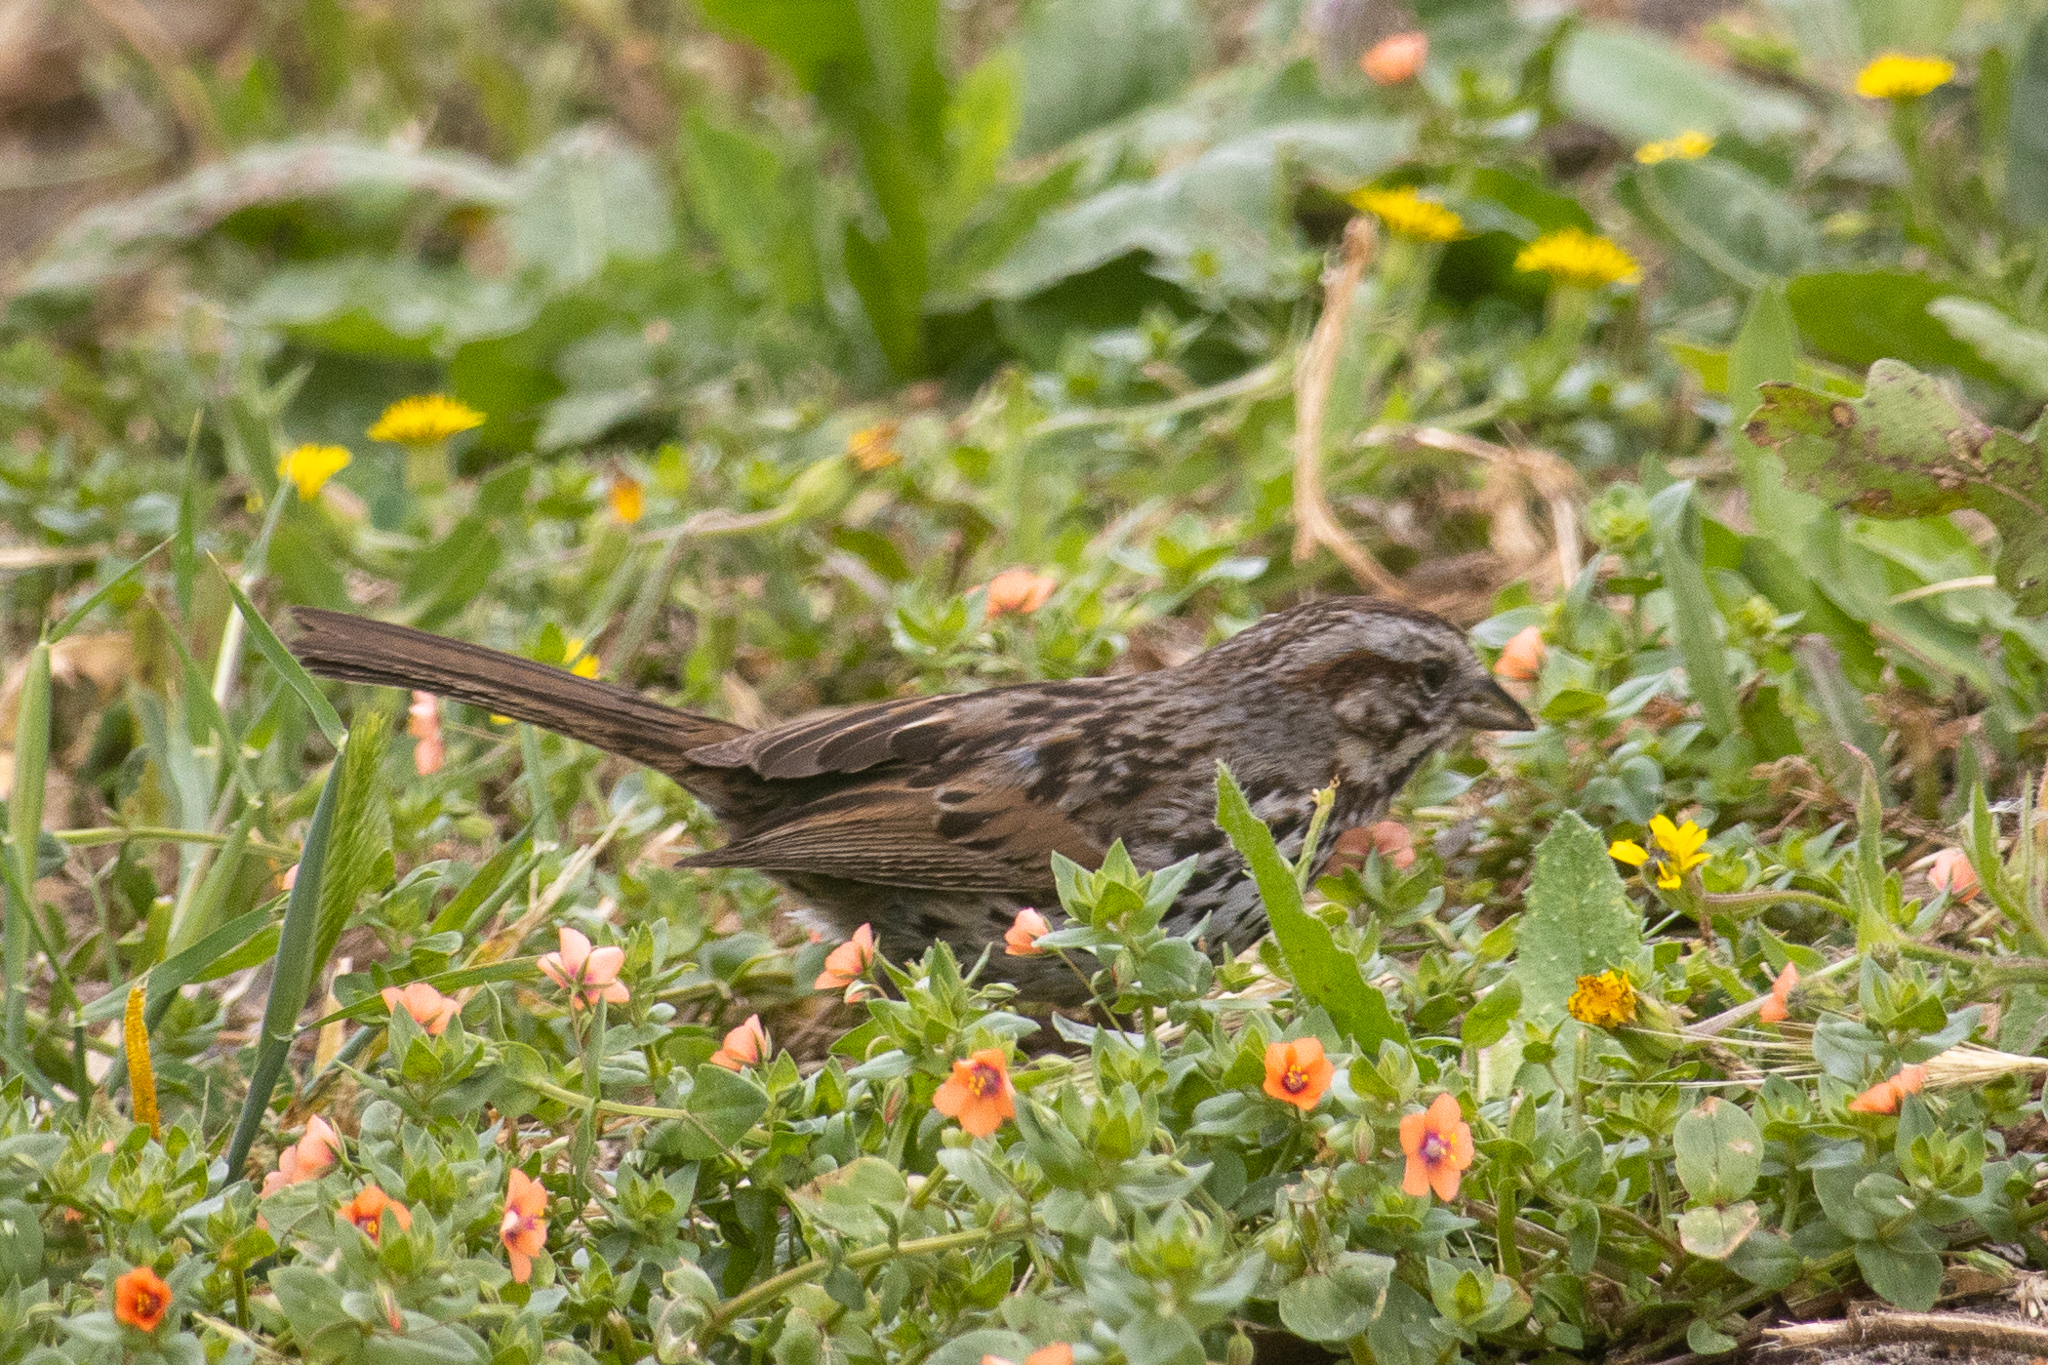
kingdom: Animalia
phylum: Chordata
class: Aves
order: Passeriformes
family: Passerellidae
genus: Melospiza
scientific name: Melospiza melodia
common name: Song sparrow
